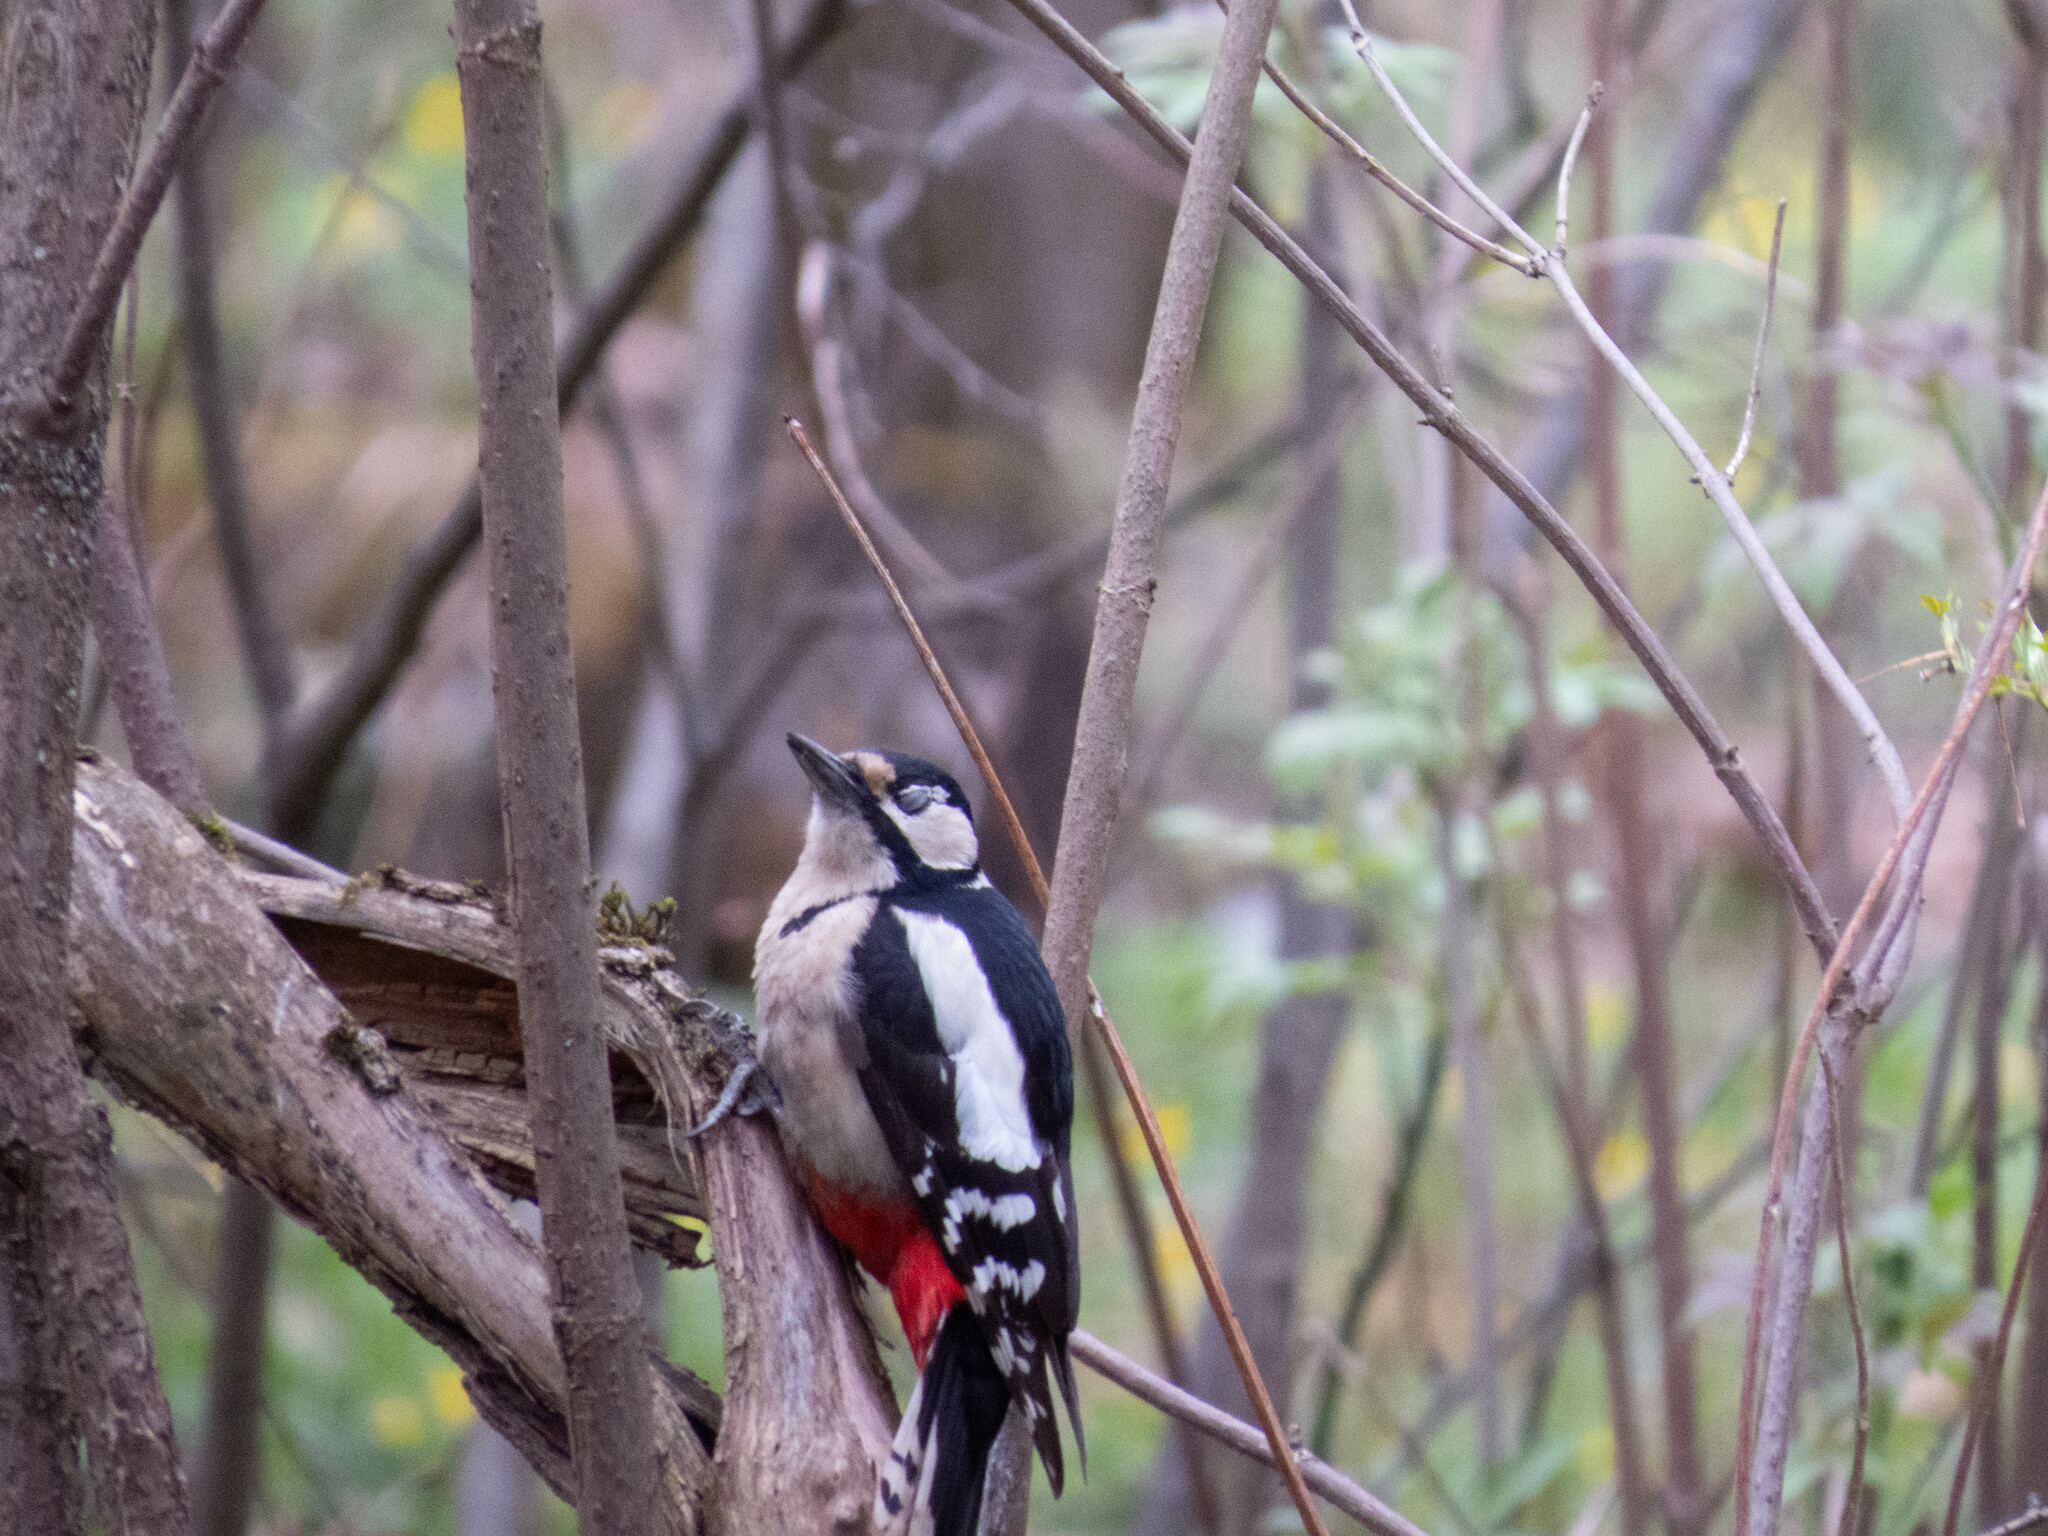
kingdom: Animalia
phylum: Chordata
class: Aves
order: Piciformes
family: Picidae
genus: Dendrocopos
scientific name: Dendrocopos major
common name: Great spotted woodpecker
